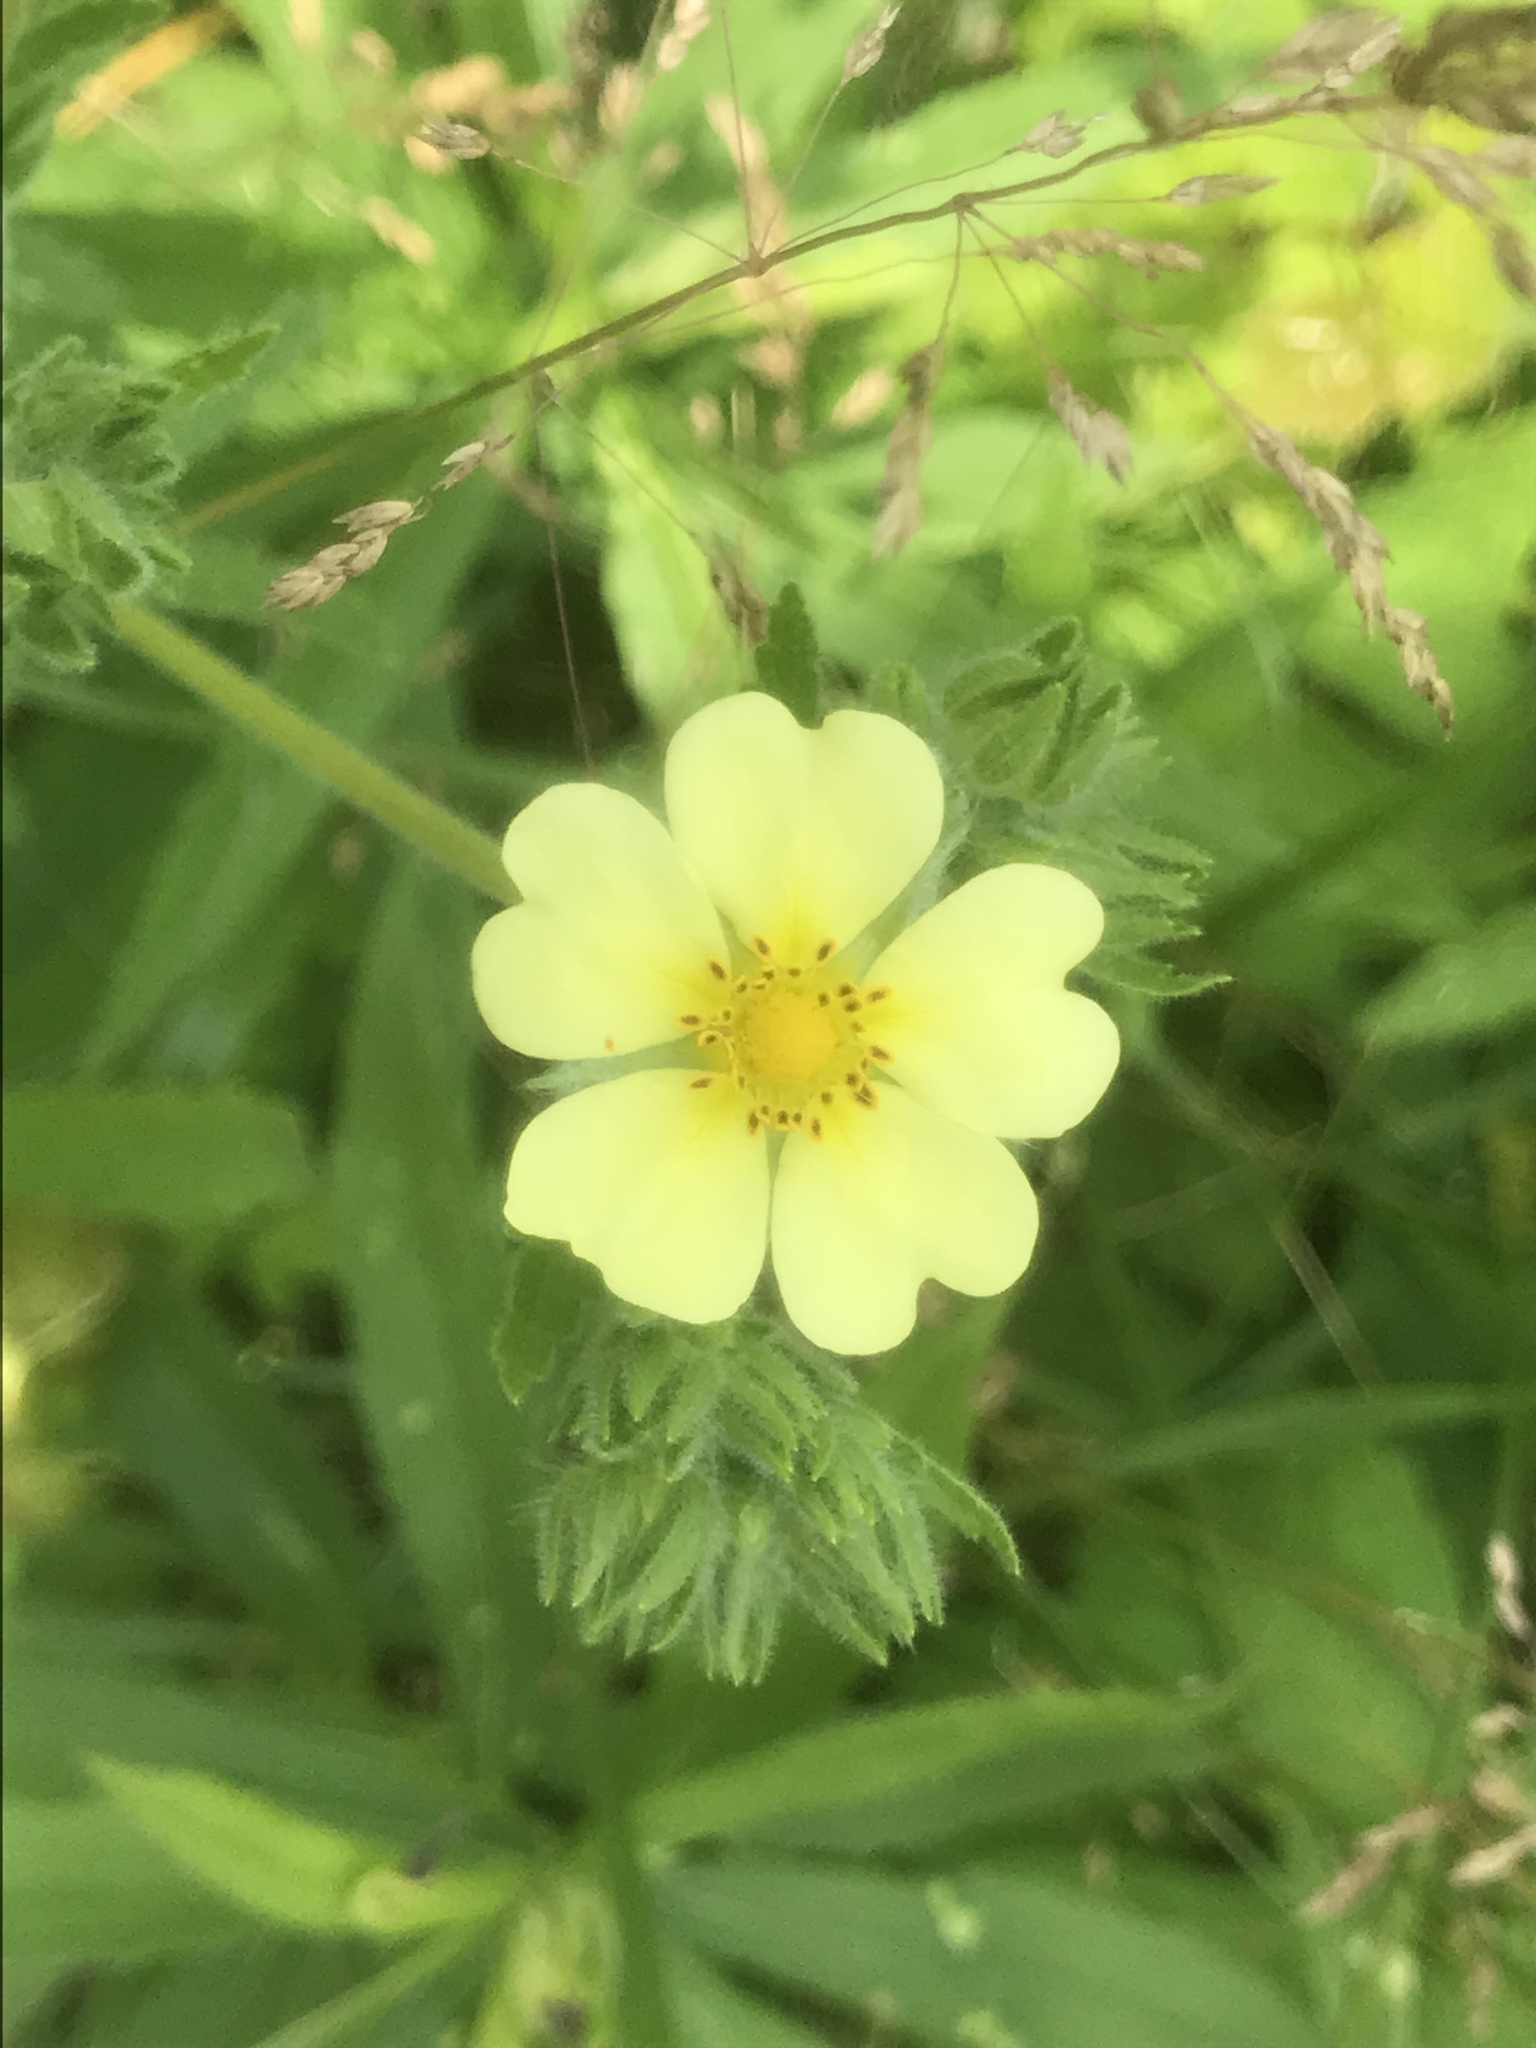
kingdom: Plantae
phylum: Tracheophyta
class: Magnoliopsida
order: Rosales
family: Rosaceae
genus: Potentilla
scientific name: Potentilla recta
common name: Sulphur cinquefoil
